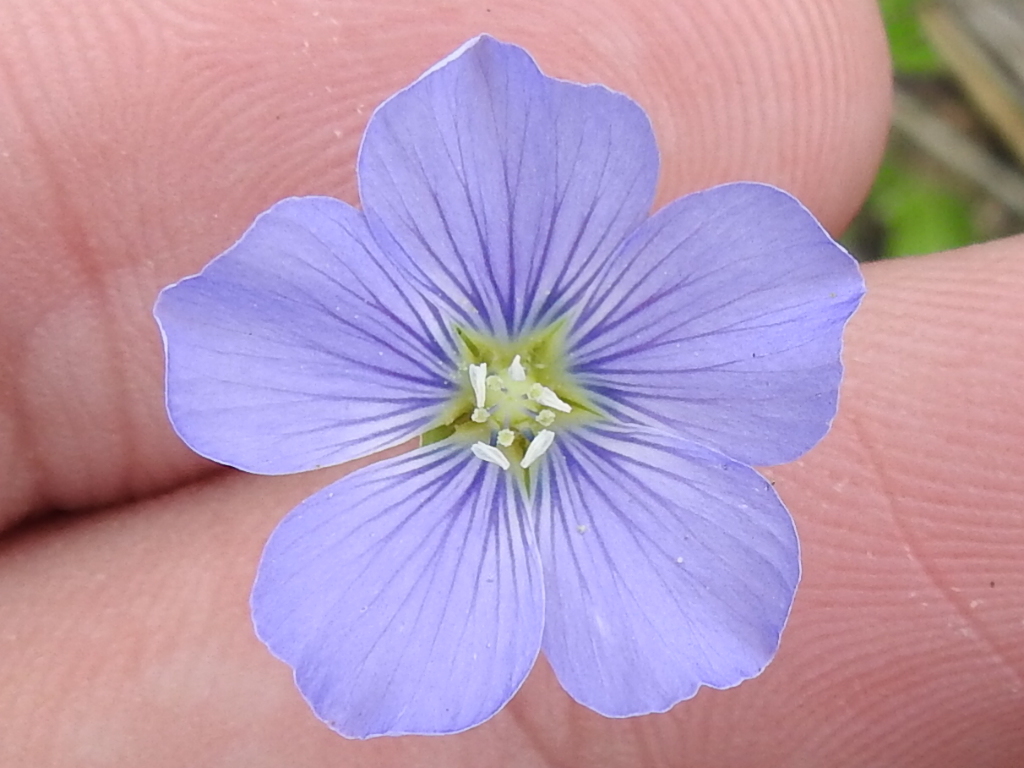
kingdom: Plantae
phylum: Tracheophyta
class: Magnoliopsida
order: Malpighiales
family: Linaceae
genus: Linum
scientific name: Linum pratense
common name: Norton's flax
